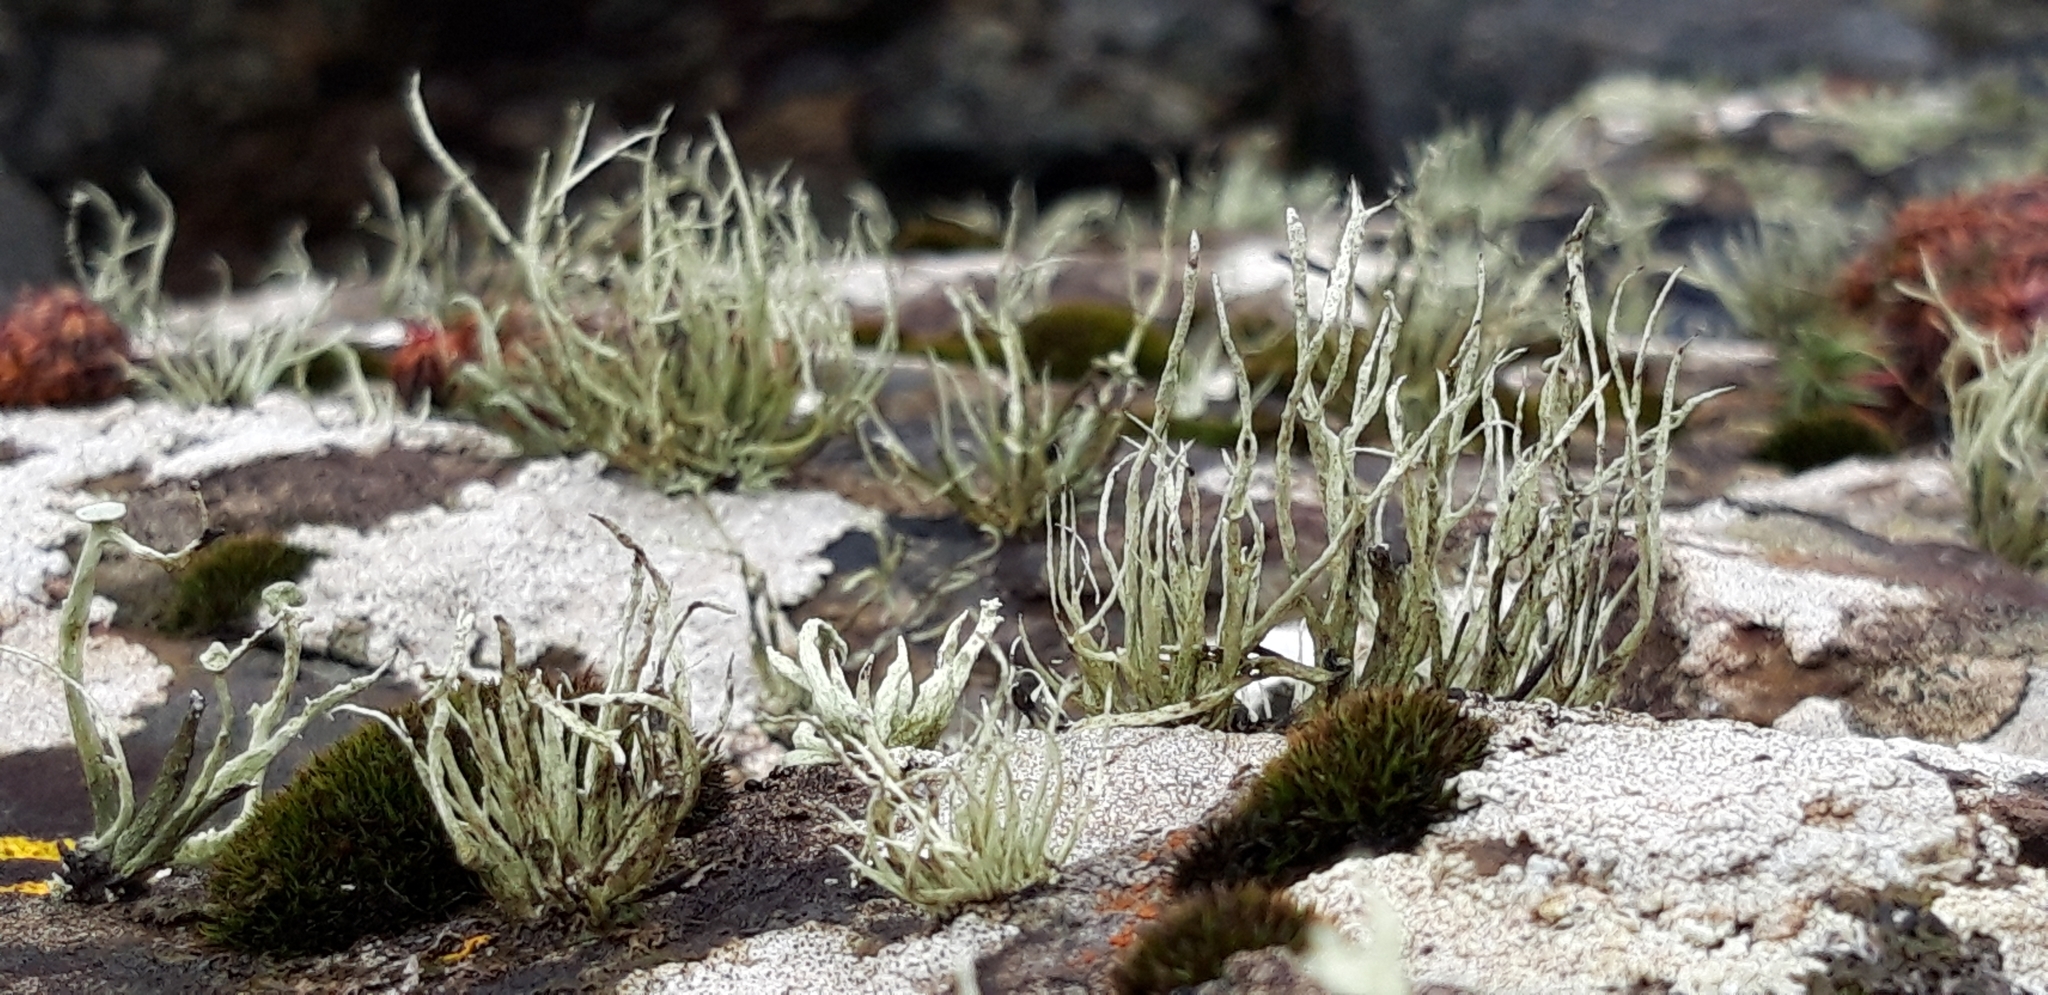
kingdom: Fungi
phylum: Ascomycota
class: Lecanoromycetes
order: Lecanorales
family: Ramalinaceae
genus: Ramalina
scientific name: Ramalina cuspidata
